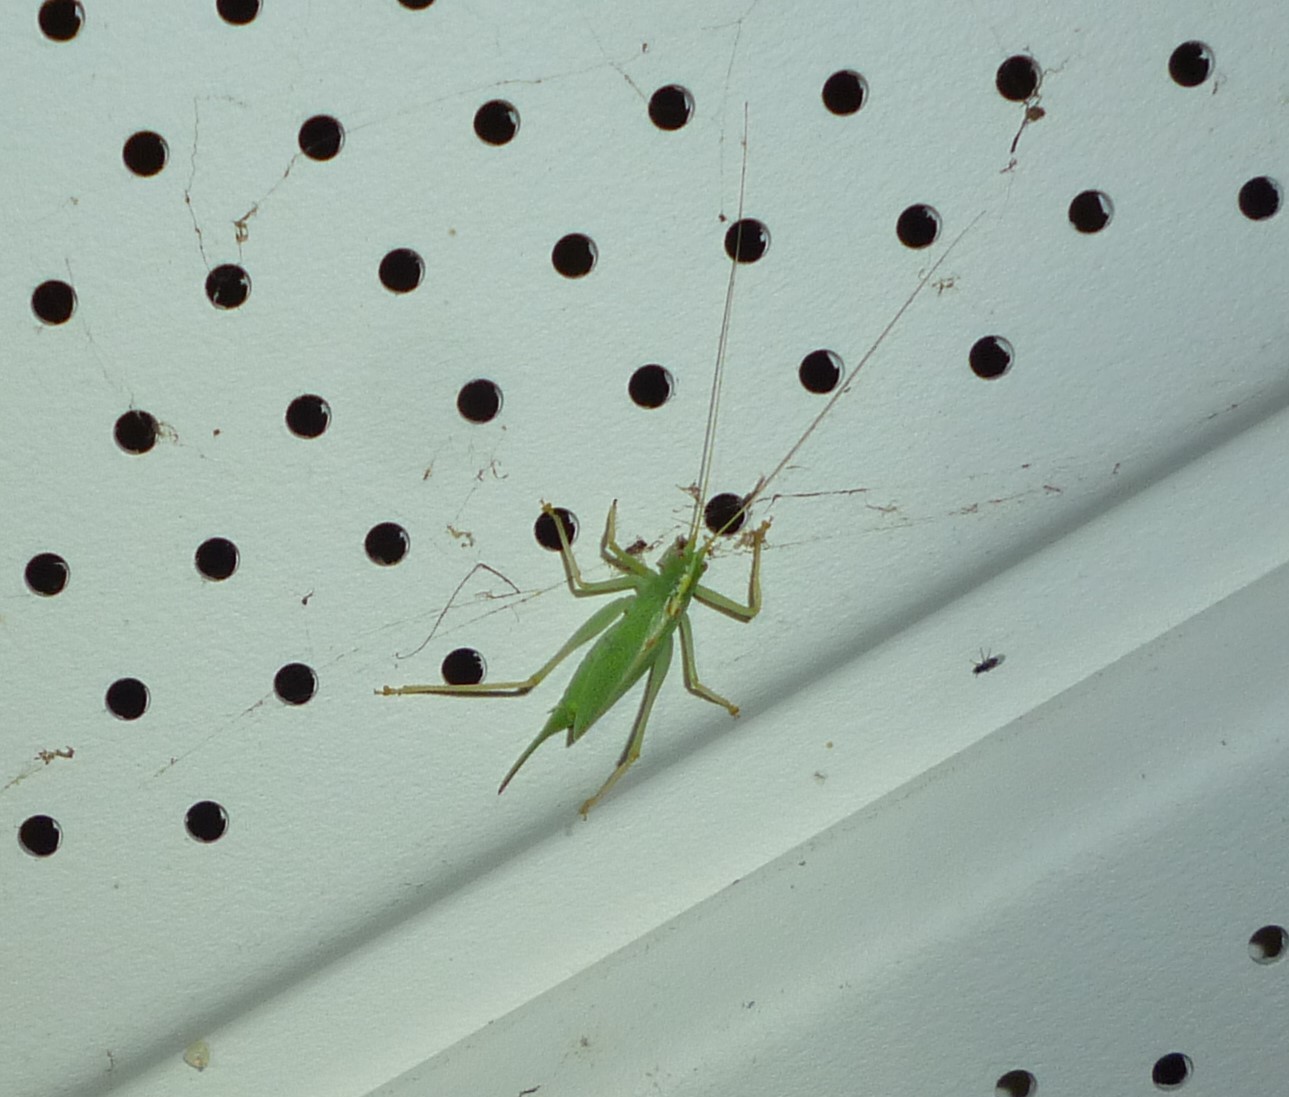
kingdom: Animalia
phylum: Arthropoda
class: Insecta
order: Orthoptera
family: Tettigoniidae
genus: Meconema
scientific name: Meconema thalassinum
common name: Oak bush-cricket
